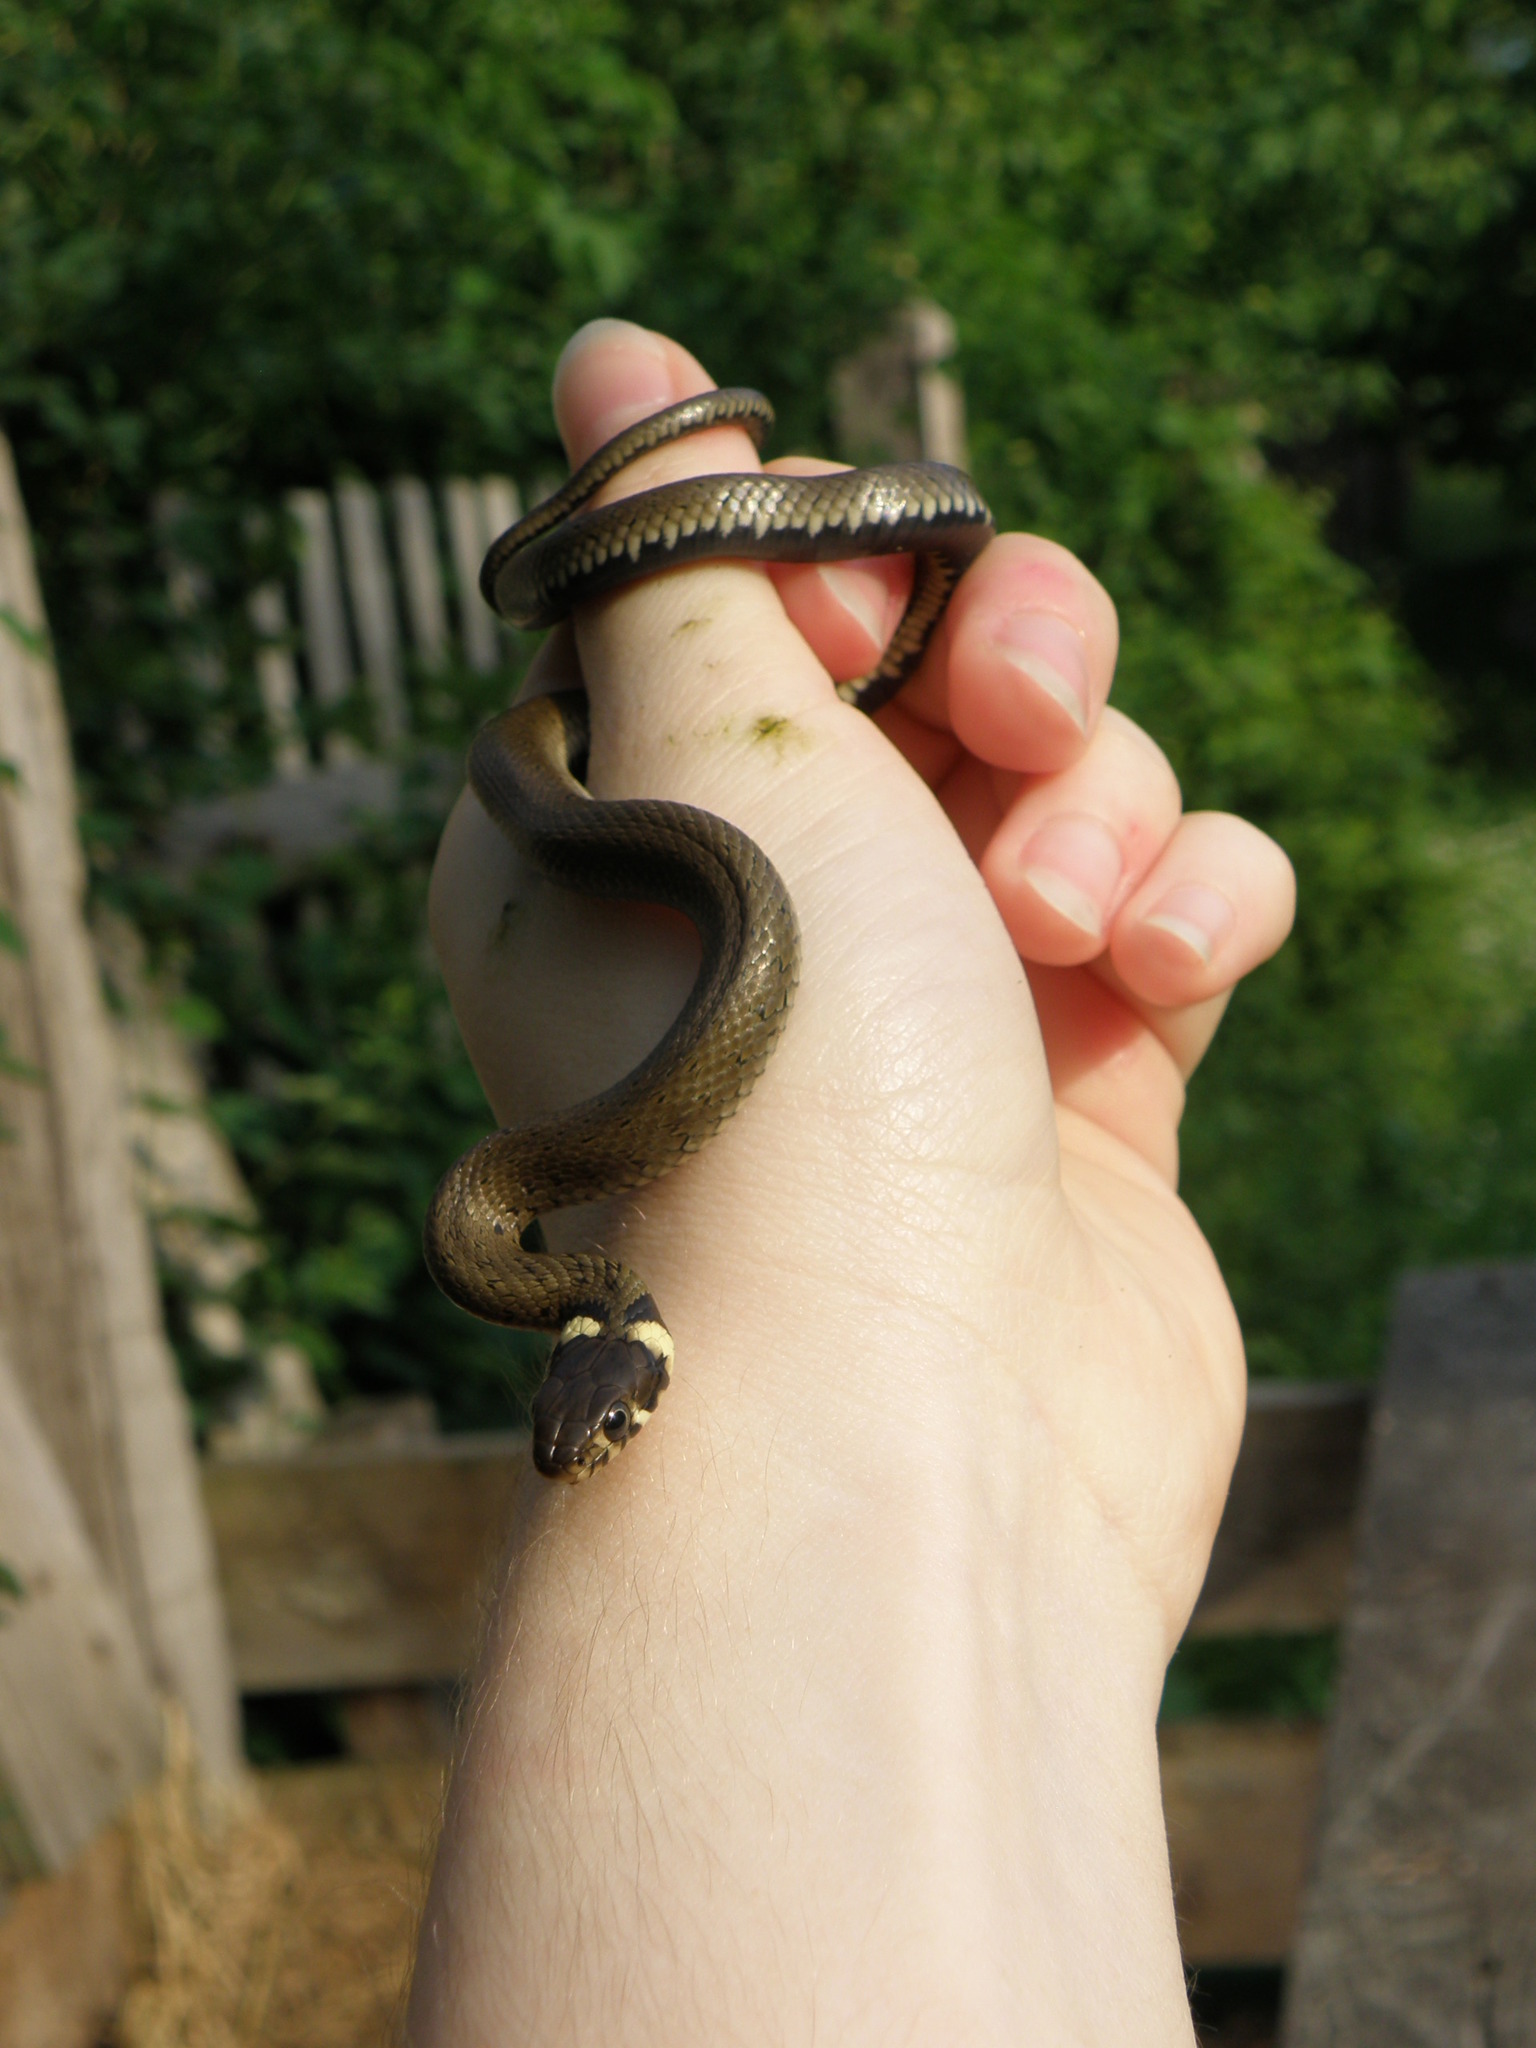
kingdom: Animalia
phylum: Chordata
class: Squamata
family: Colubridae
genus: Natrix
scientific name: Natrix natrix
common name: Grass snake
